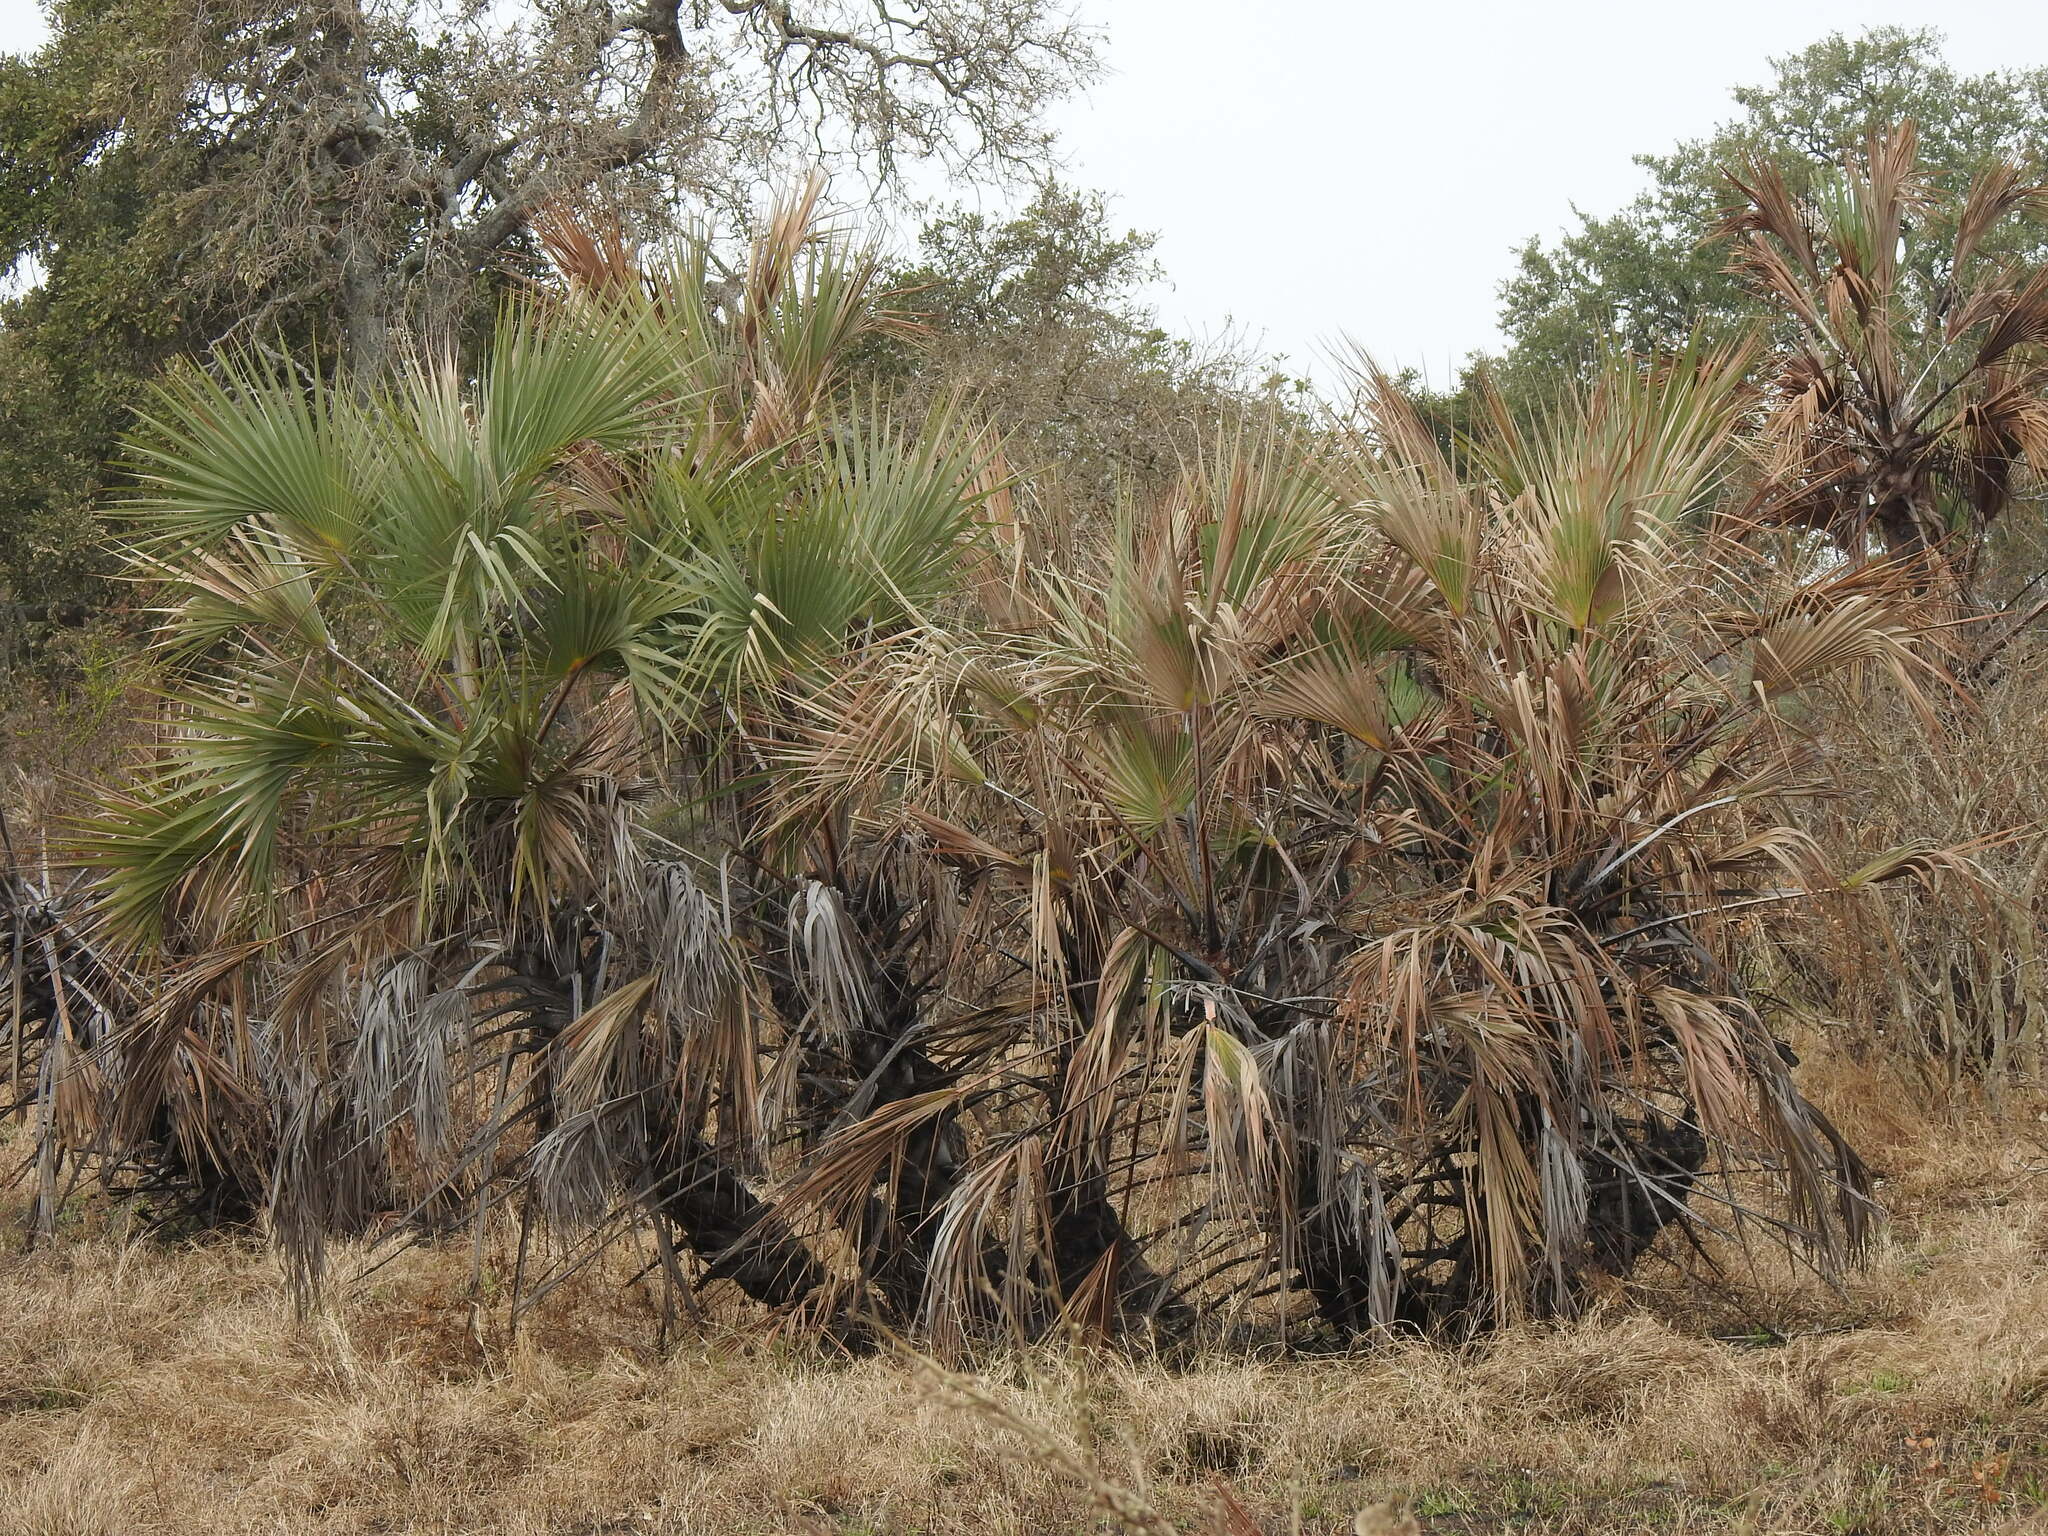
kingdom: Plantae
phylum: Tracheophyta
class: Liliopsida
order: Arecales
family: Arecaceae
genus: Hyphaene
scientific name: Hyphaene coriacea
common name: Ilala palm
